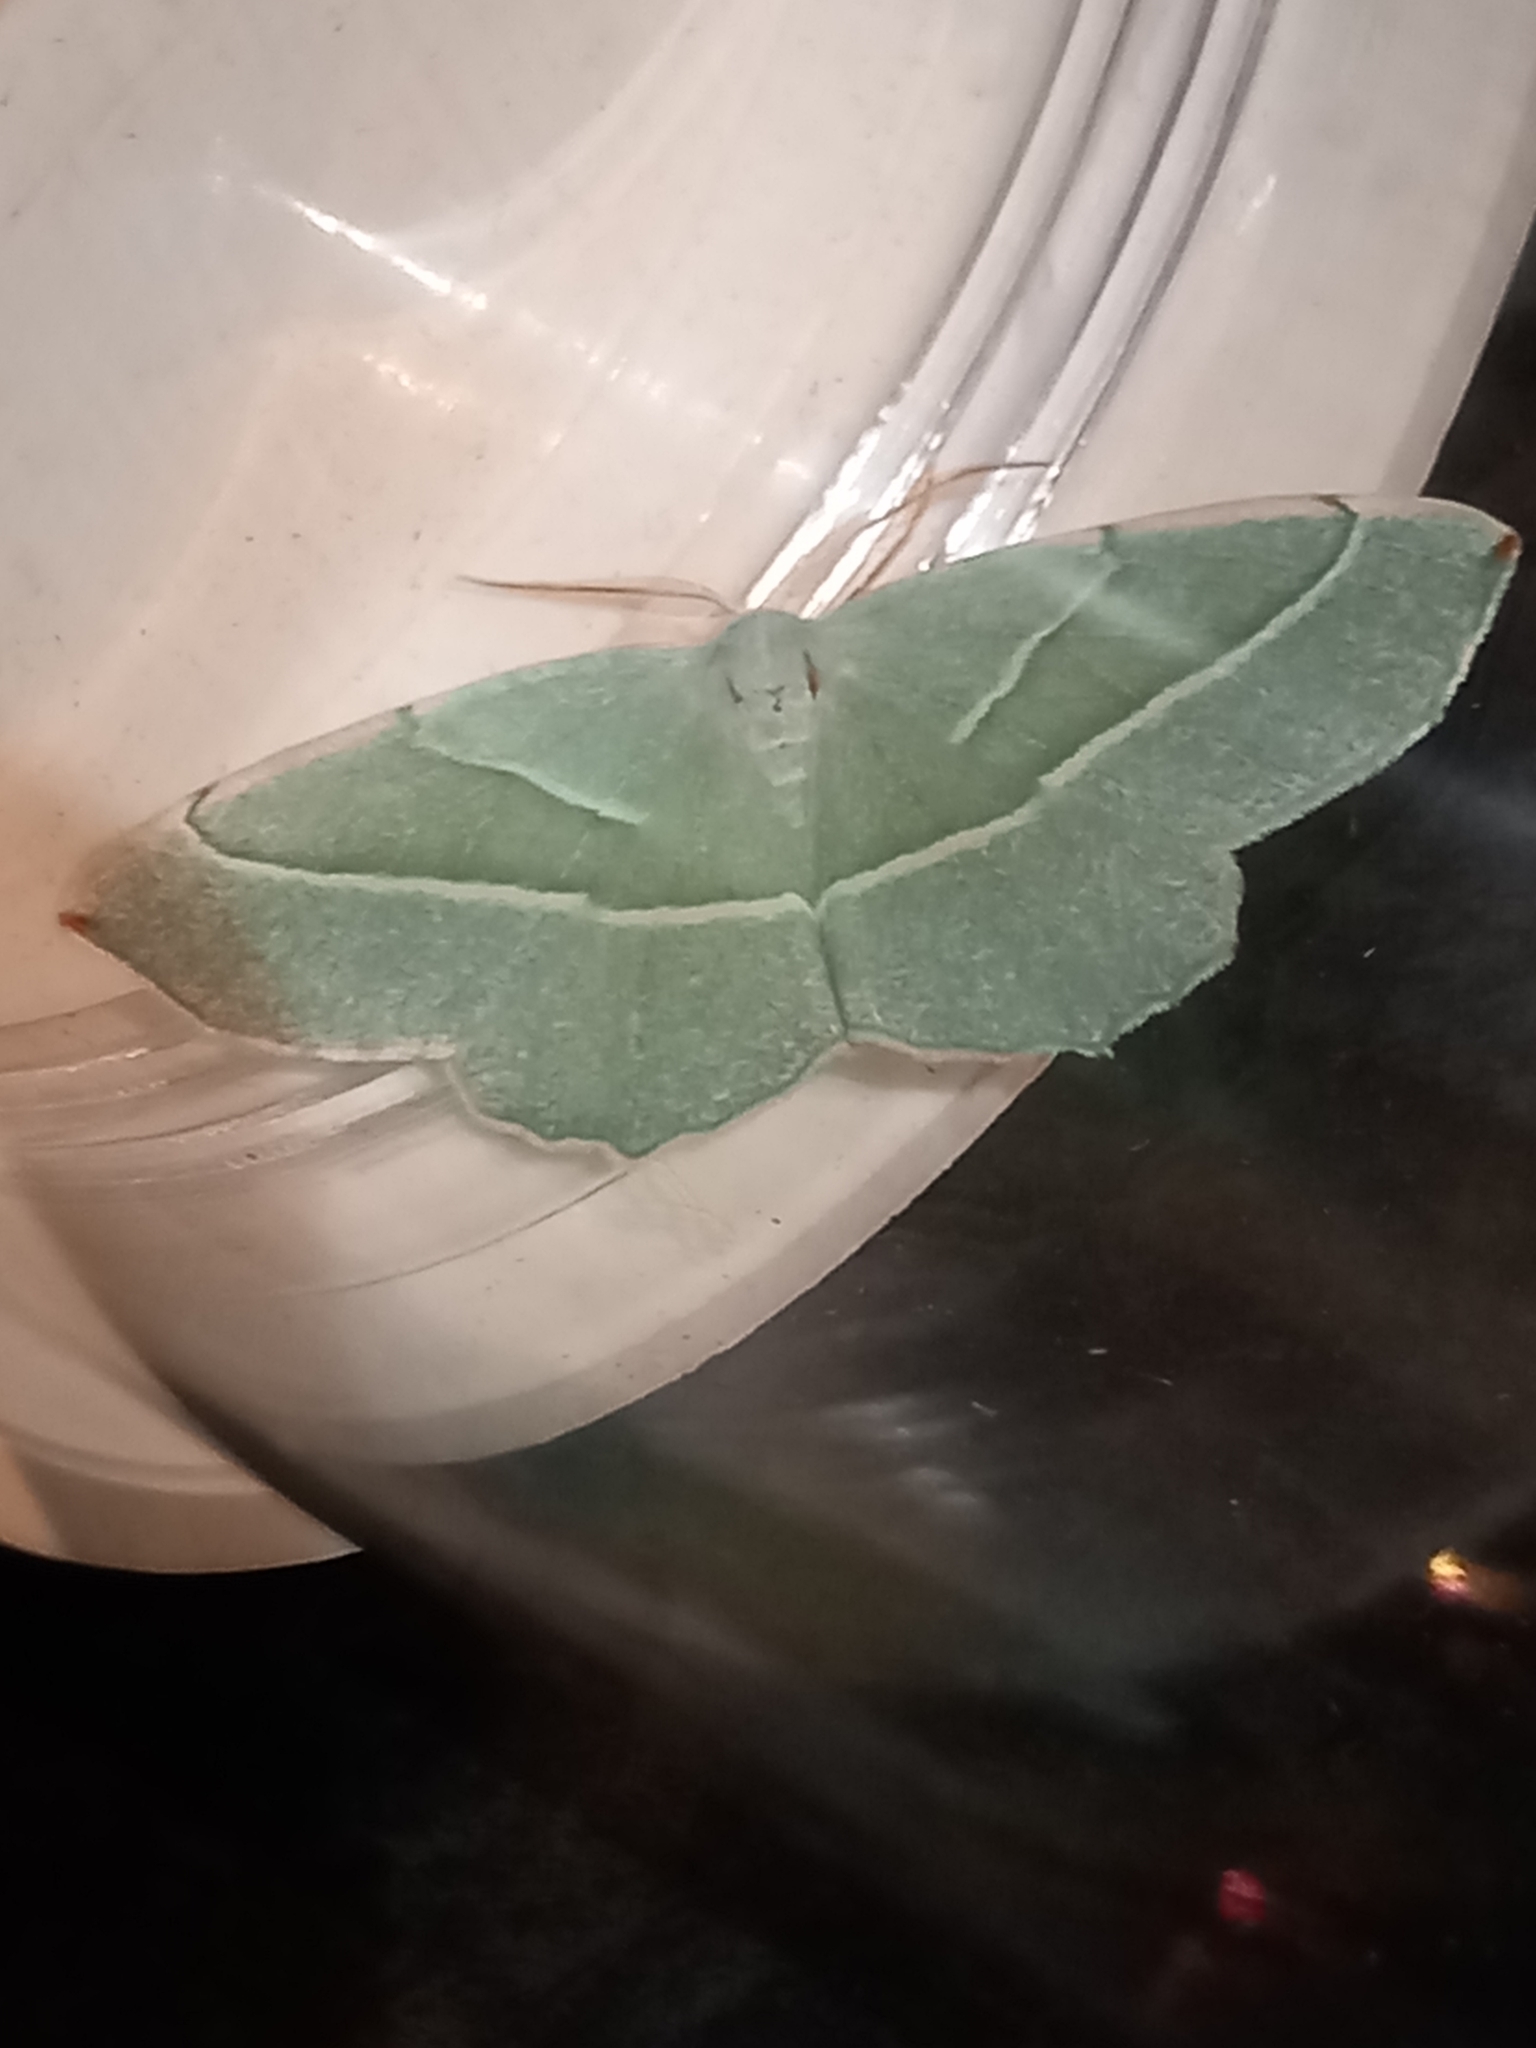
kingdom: Animalia
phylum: Arthropoda
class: Insecta
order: Lepidoptera
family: Geometridae
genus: Campaea
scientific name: Campaea margaritaria
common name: Light emerald
